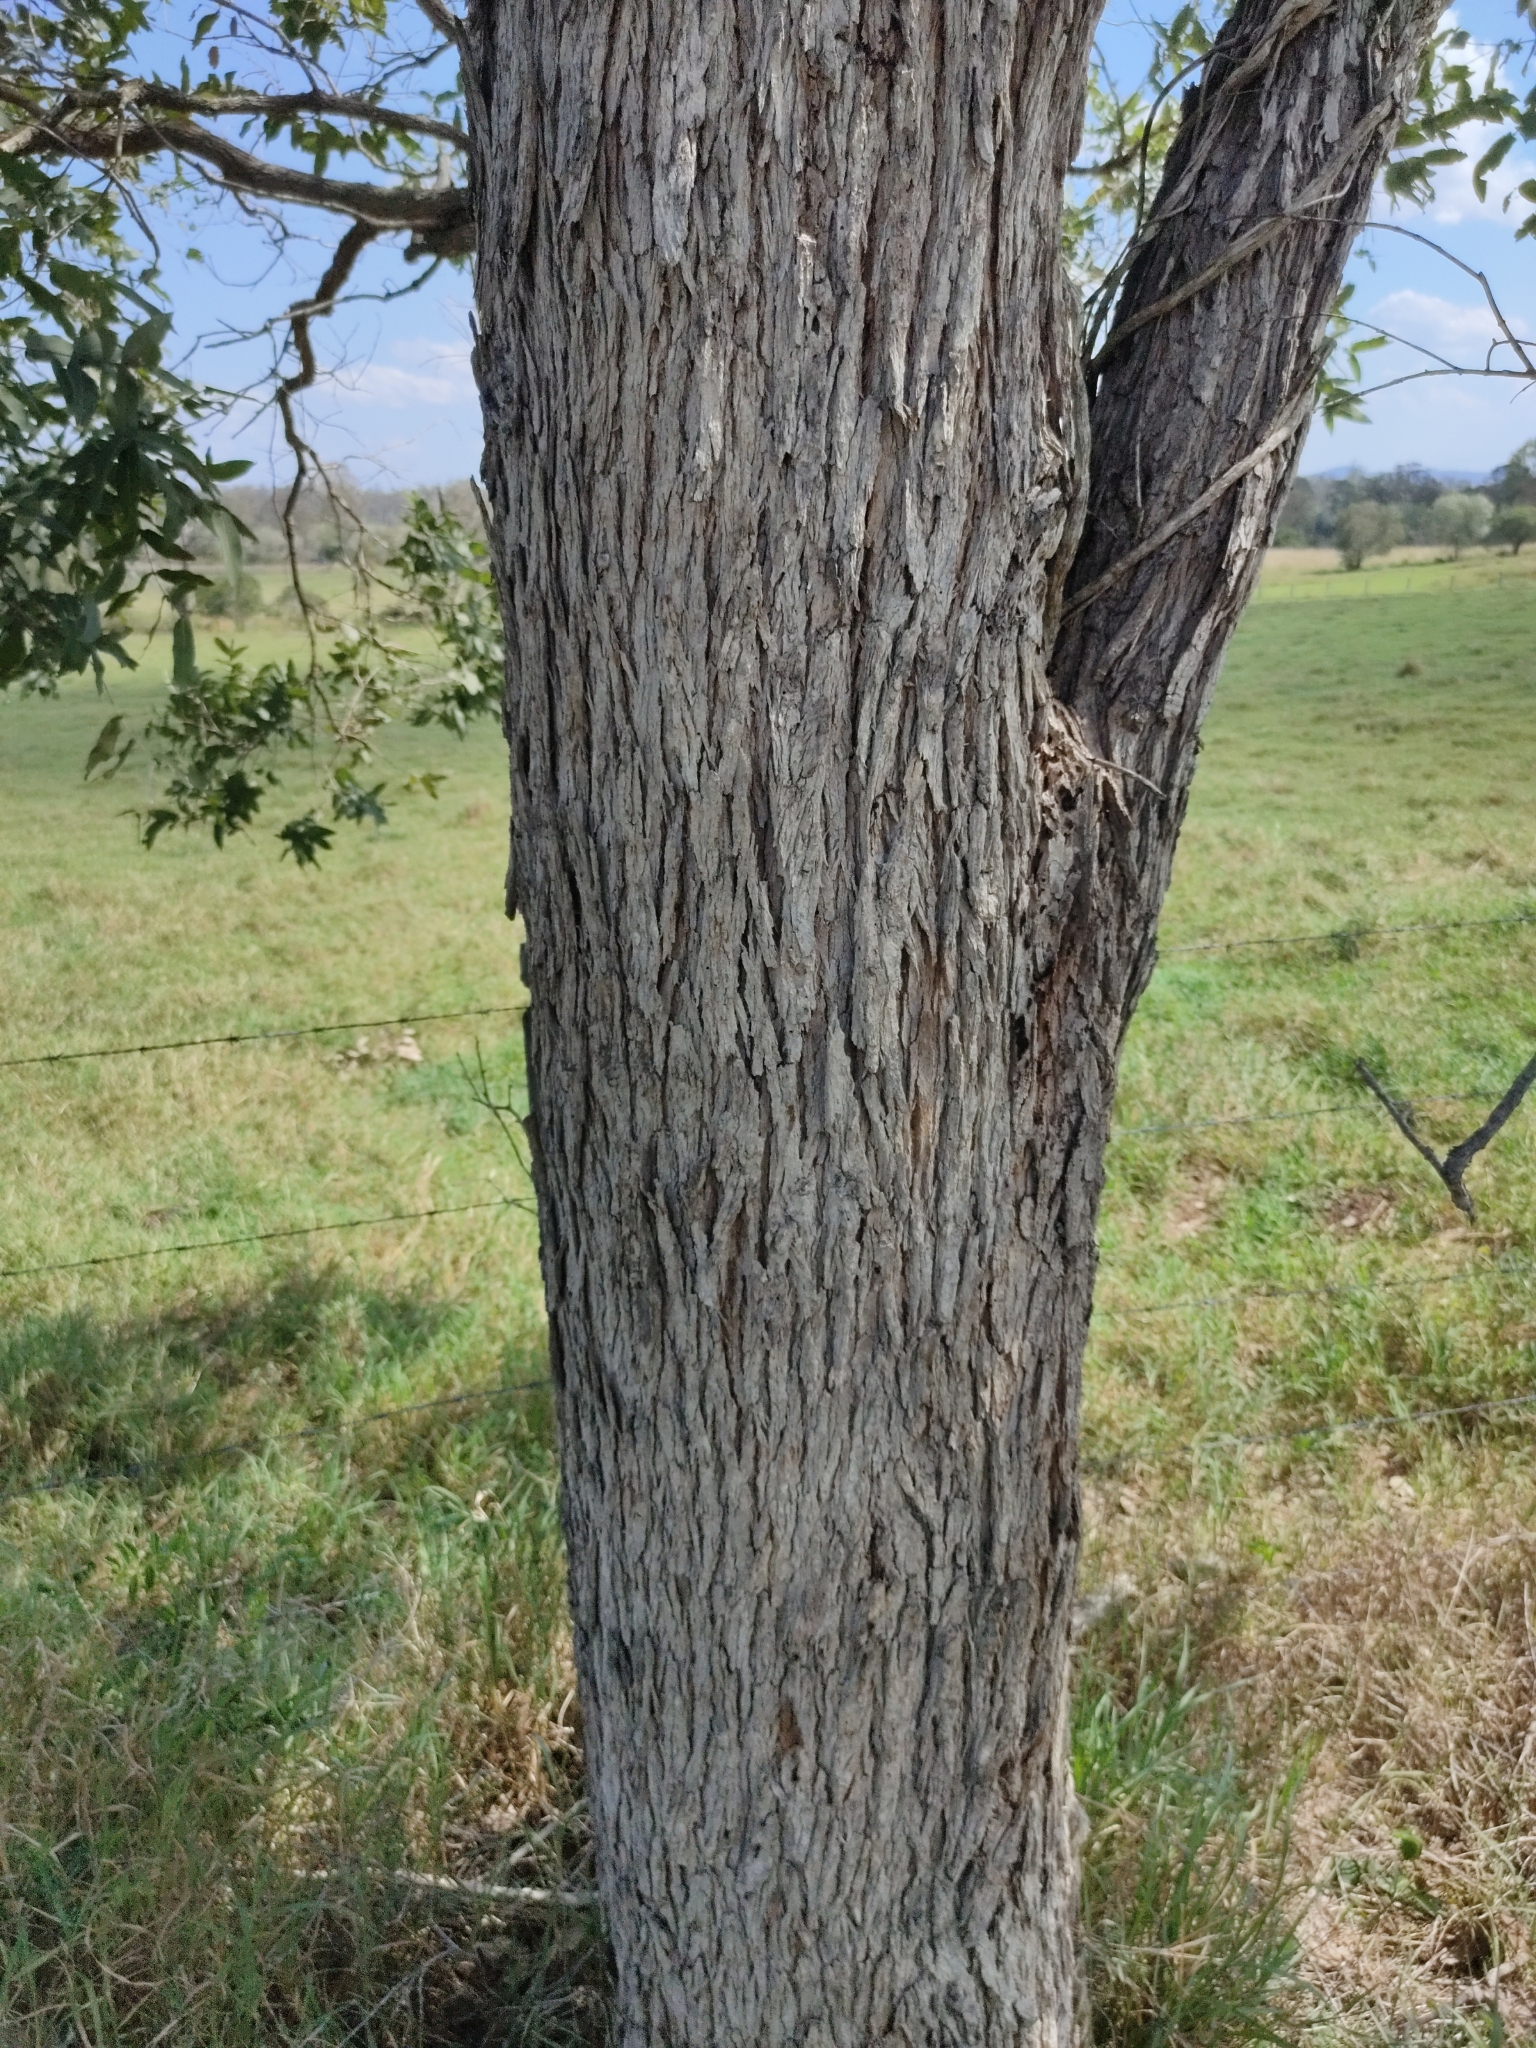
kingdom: Plantae
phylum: Tracheophyta
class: Magnoliopsida
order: Myrtales
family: Myrtaceae
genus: Angophora
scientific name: Angophora subvelutina
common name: Broad-leaved apple
